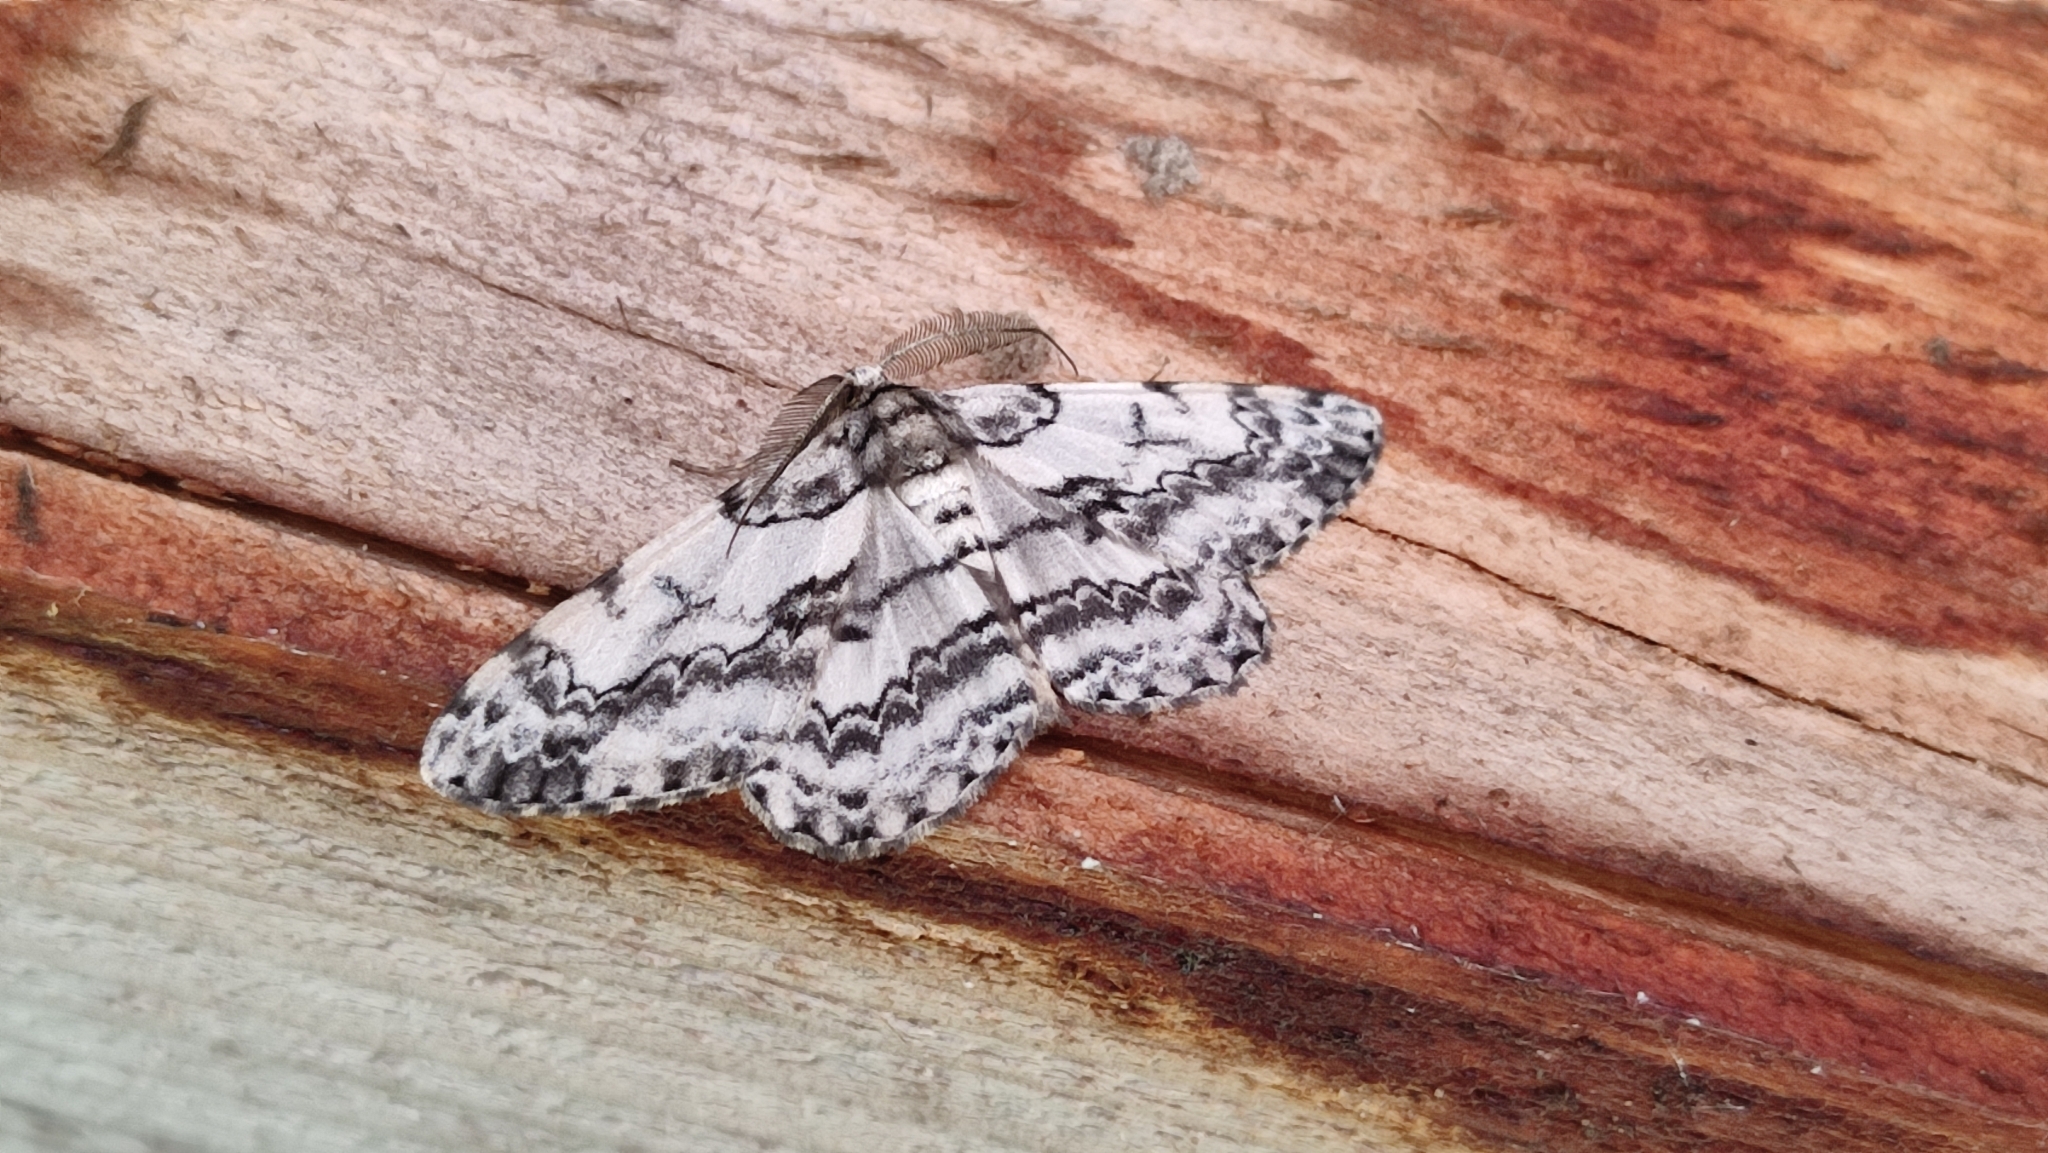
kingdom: Animalia
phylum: Arthropoda
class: Insecta
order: Lepidoptera
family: Geometridae
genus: Hypomecis
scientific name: Hypomecis roboraria
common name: Great oak beauty
